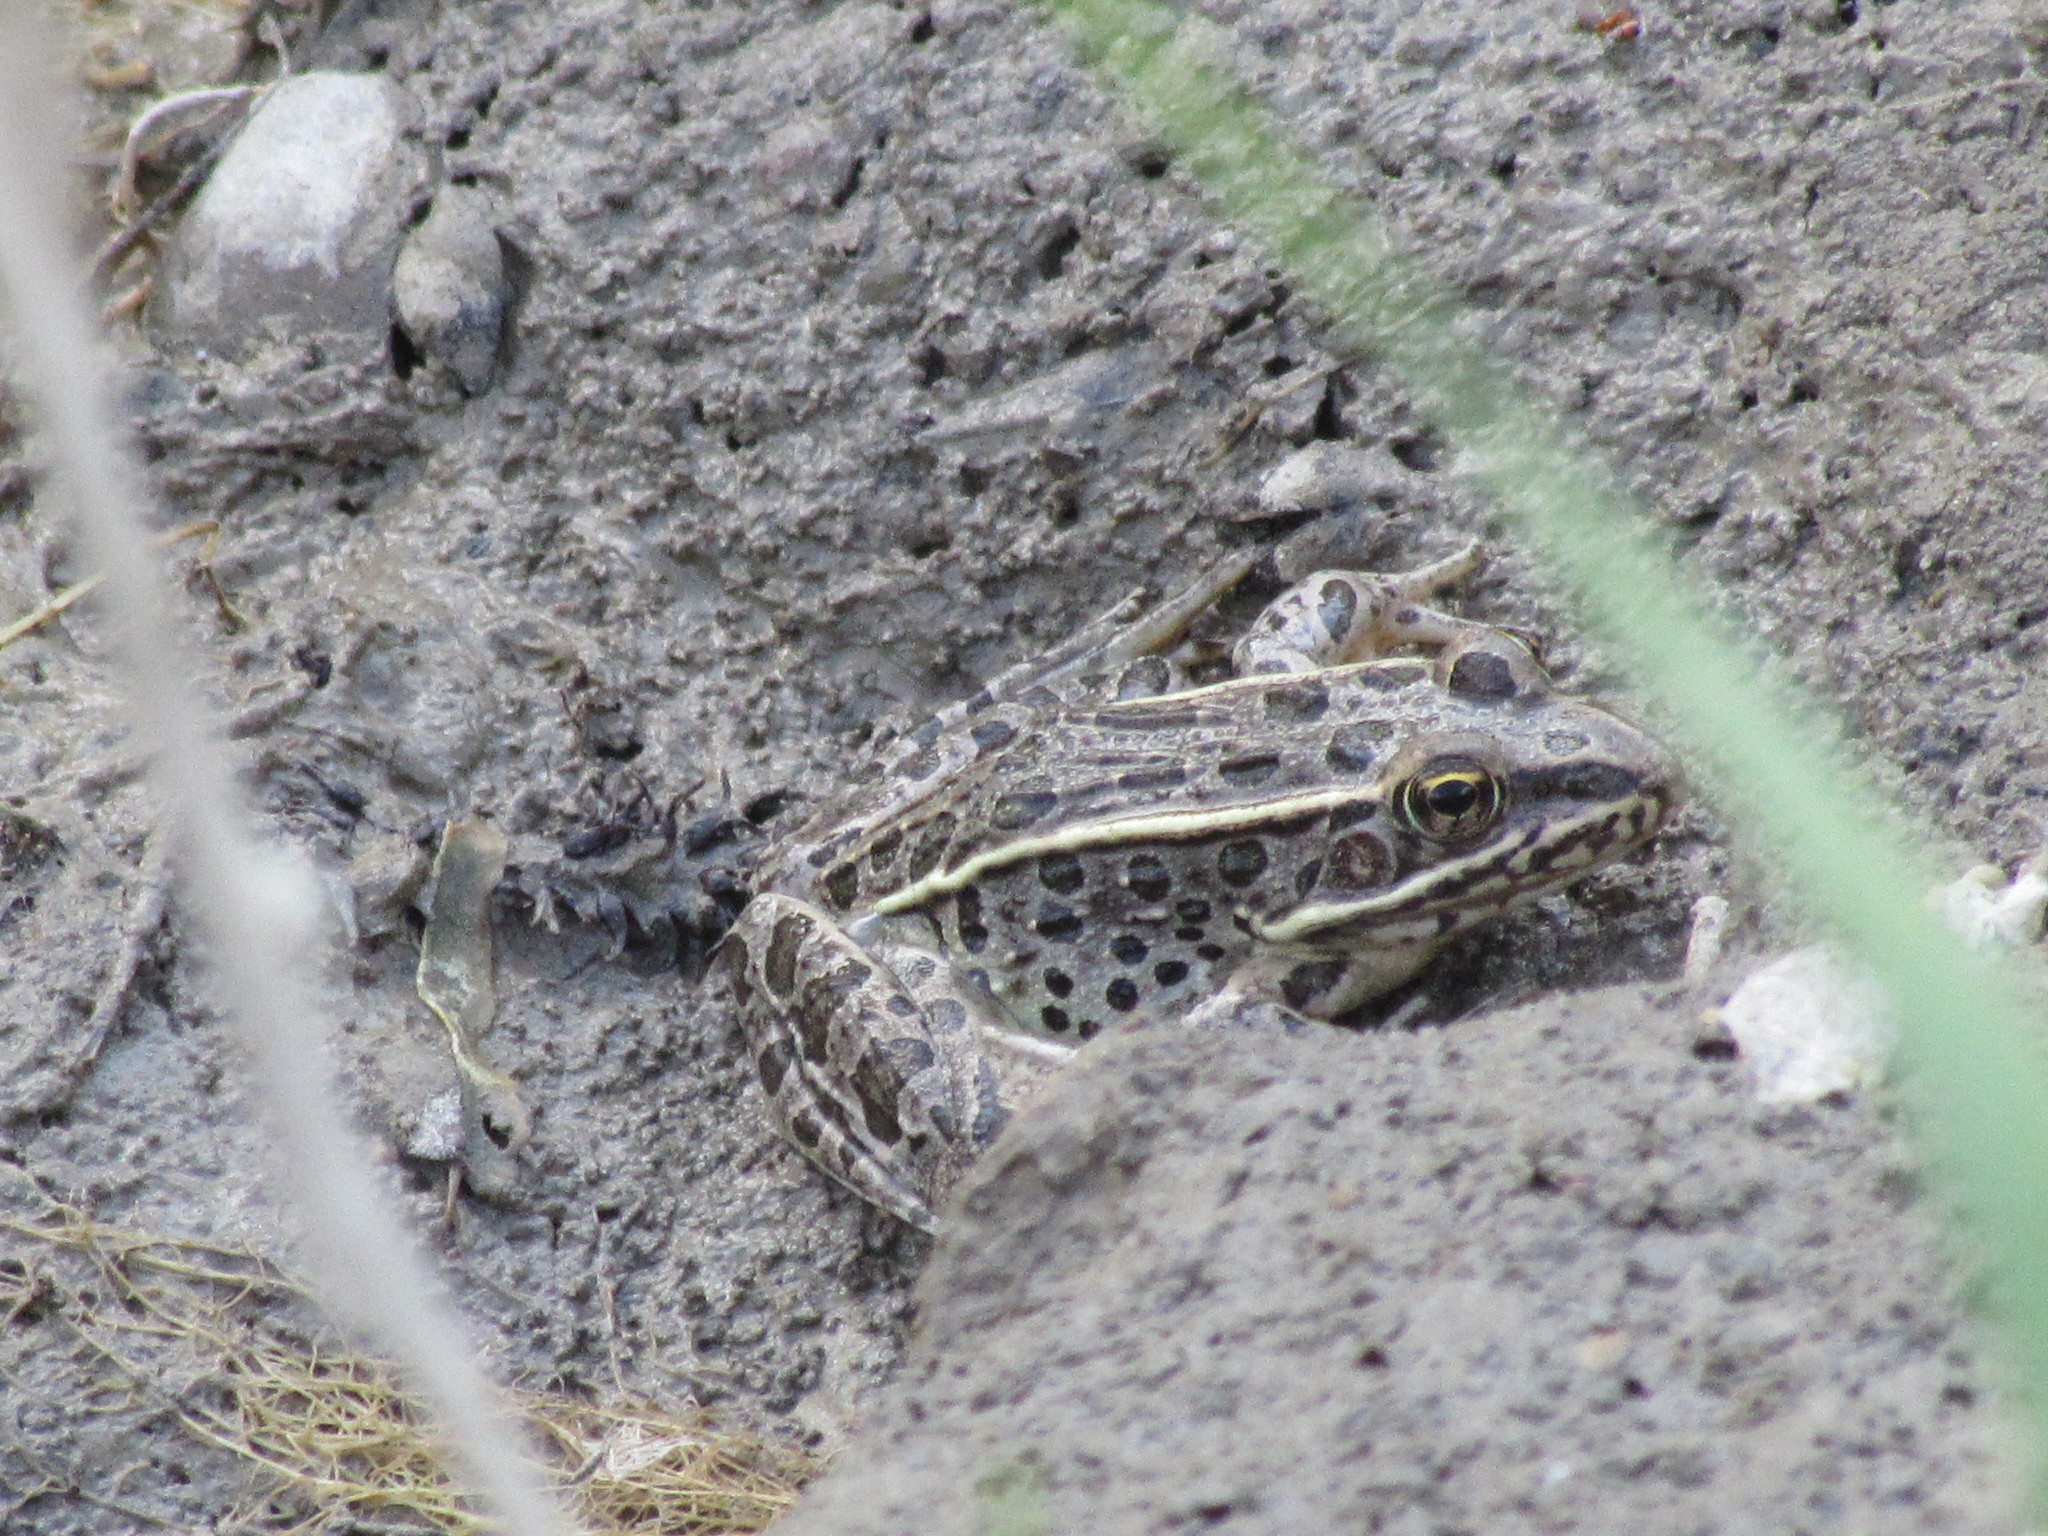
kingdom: Animalia
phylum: Chordata
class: Amphibia
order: Anura
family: Ranidae
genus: Lithobates
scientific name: Lithobates pipiens
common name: Northern leopard frog
